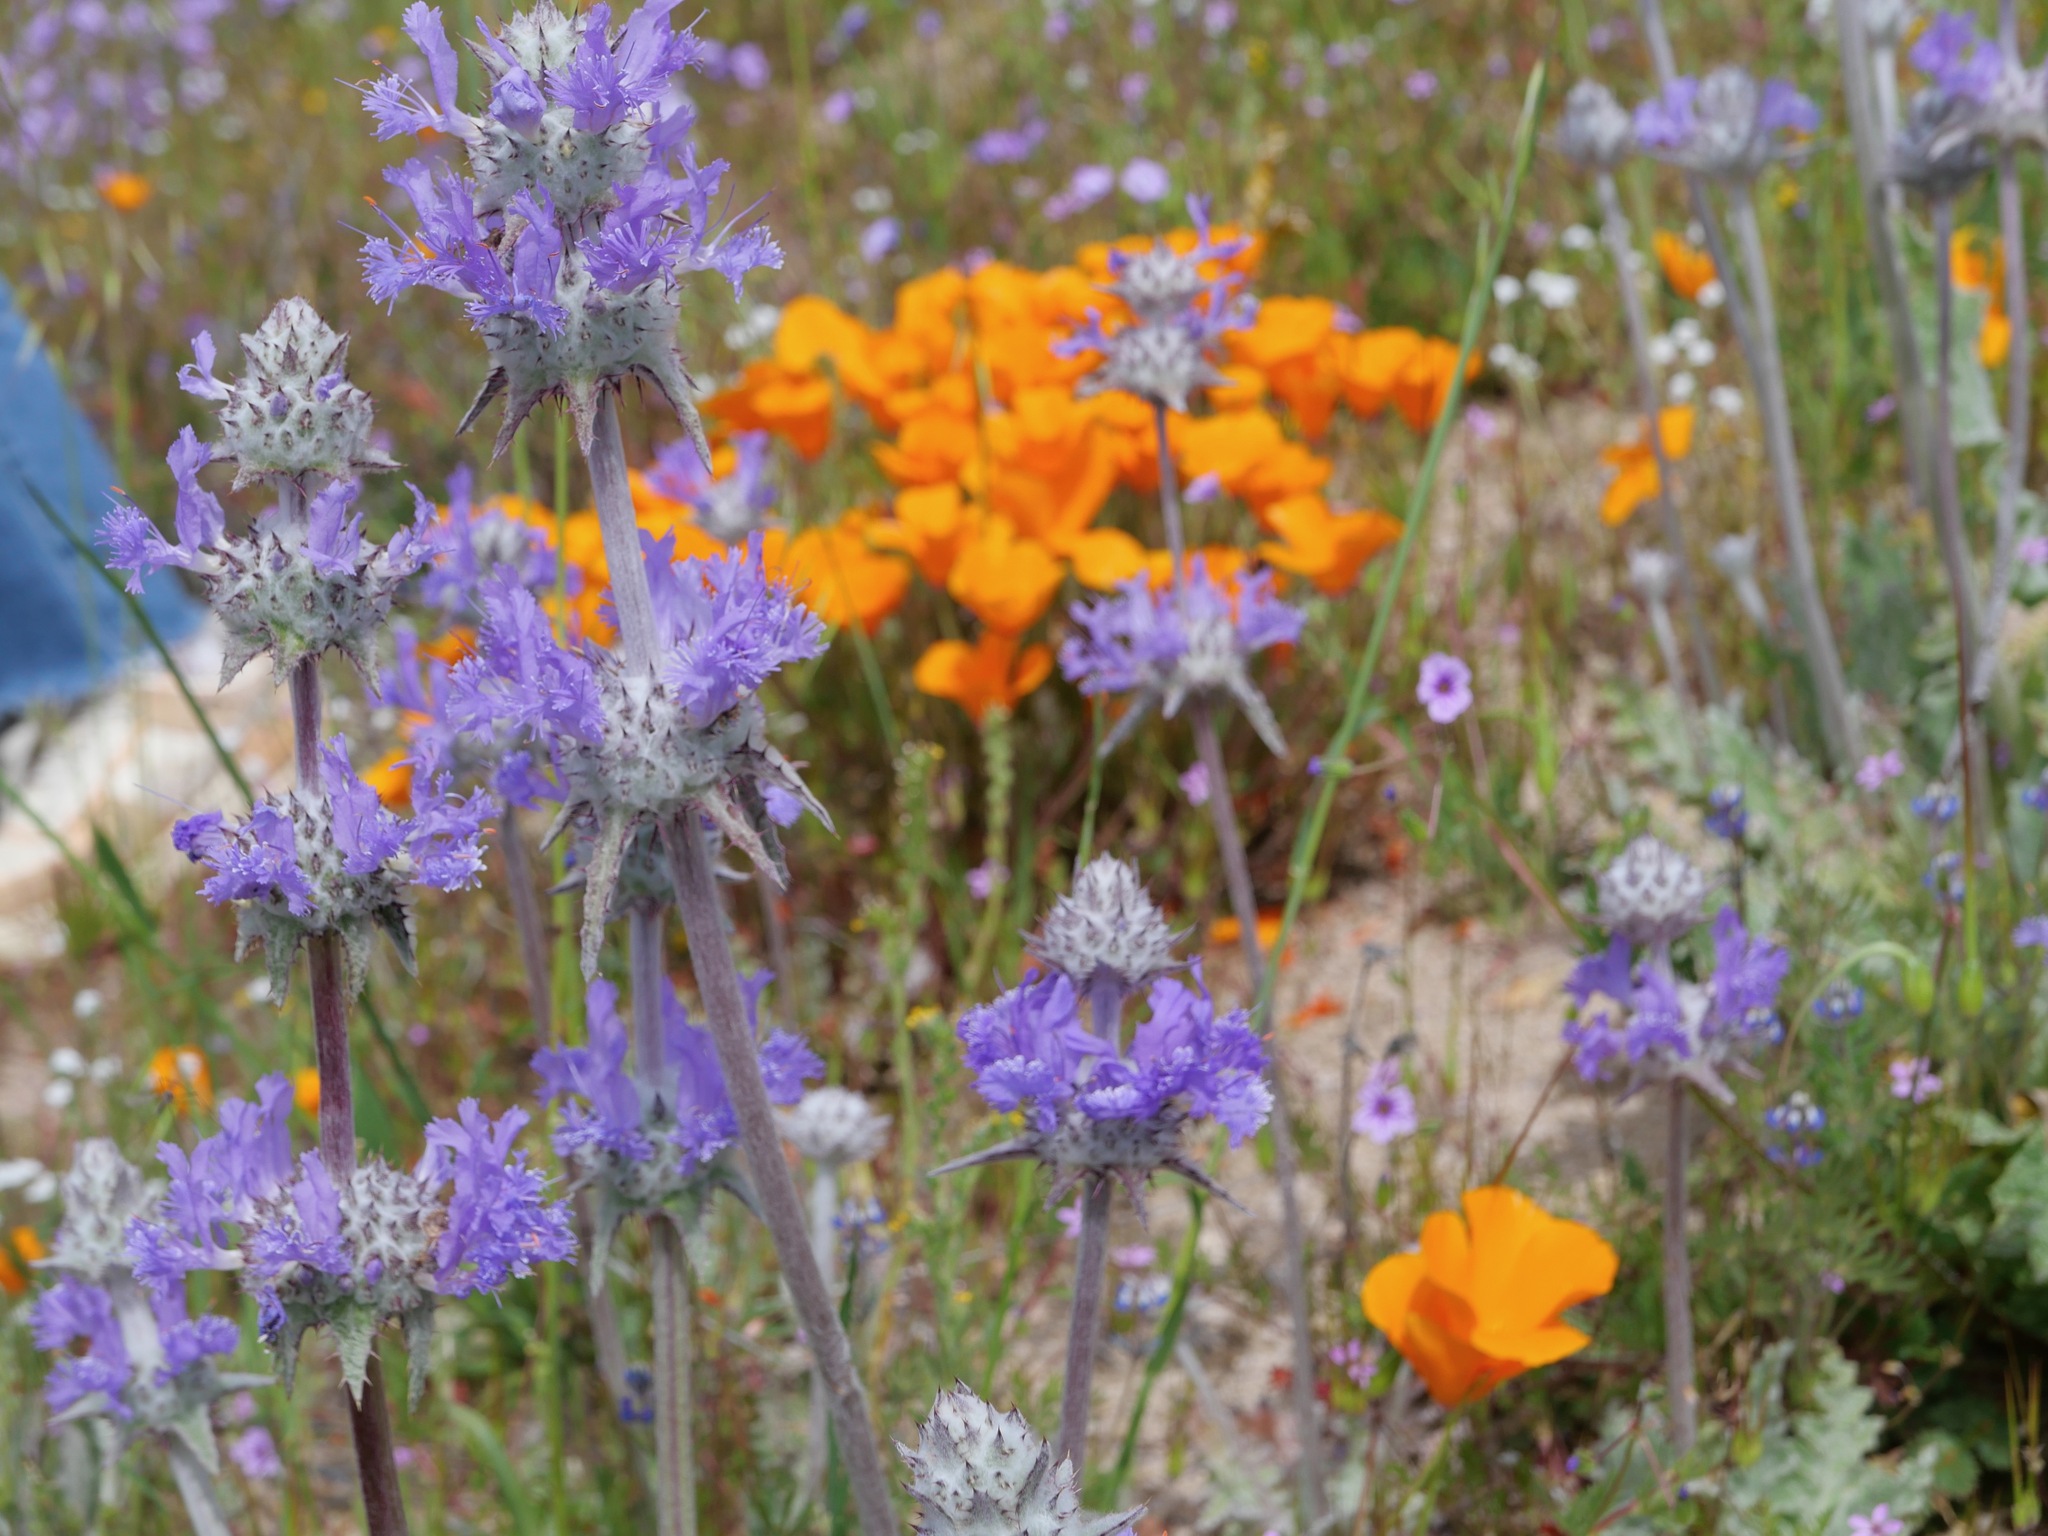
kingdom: Plantae
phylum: Tracheophyta
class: Magnoliopsida
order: Lamiales
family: Lamiaceae
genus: Salvia
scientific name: Salvia carduacea
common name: Thistle sage
